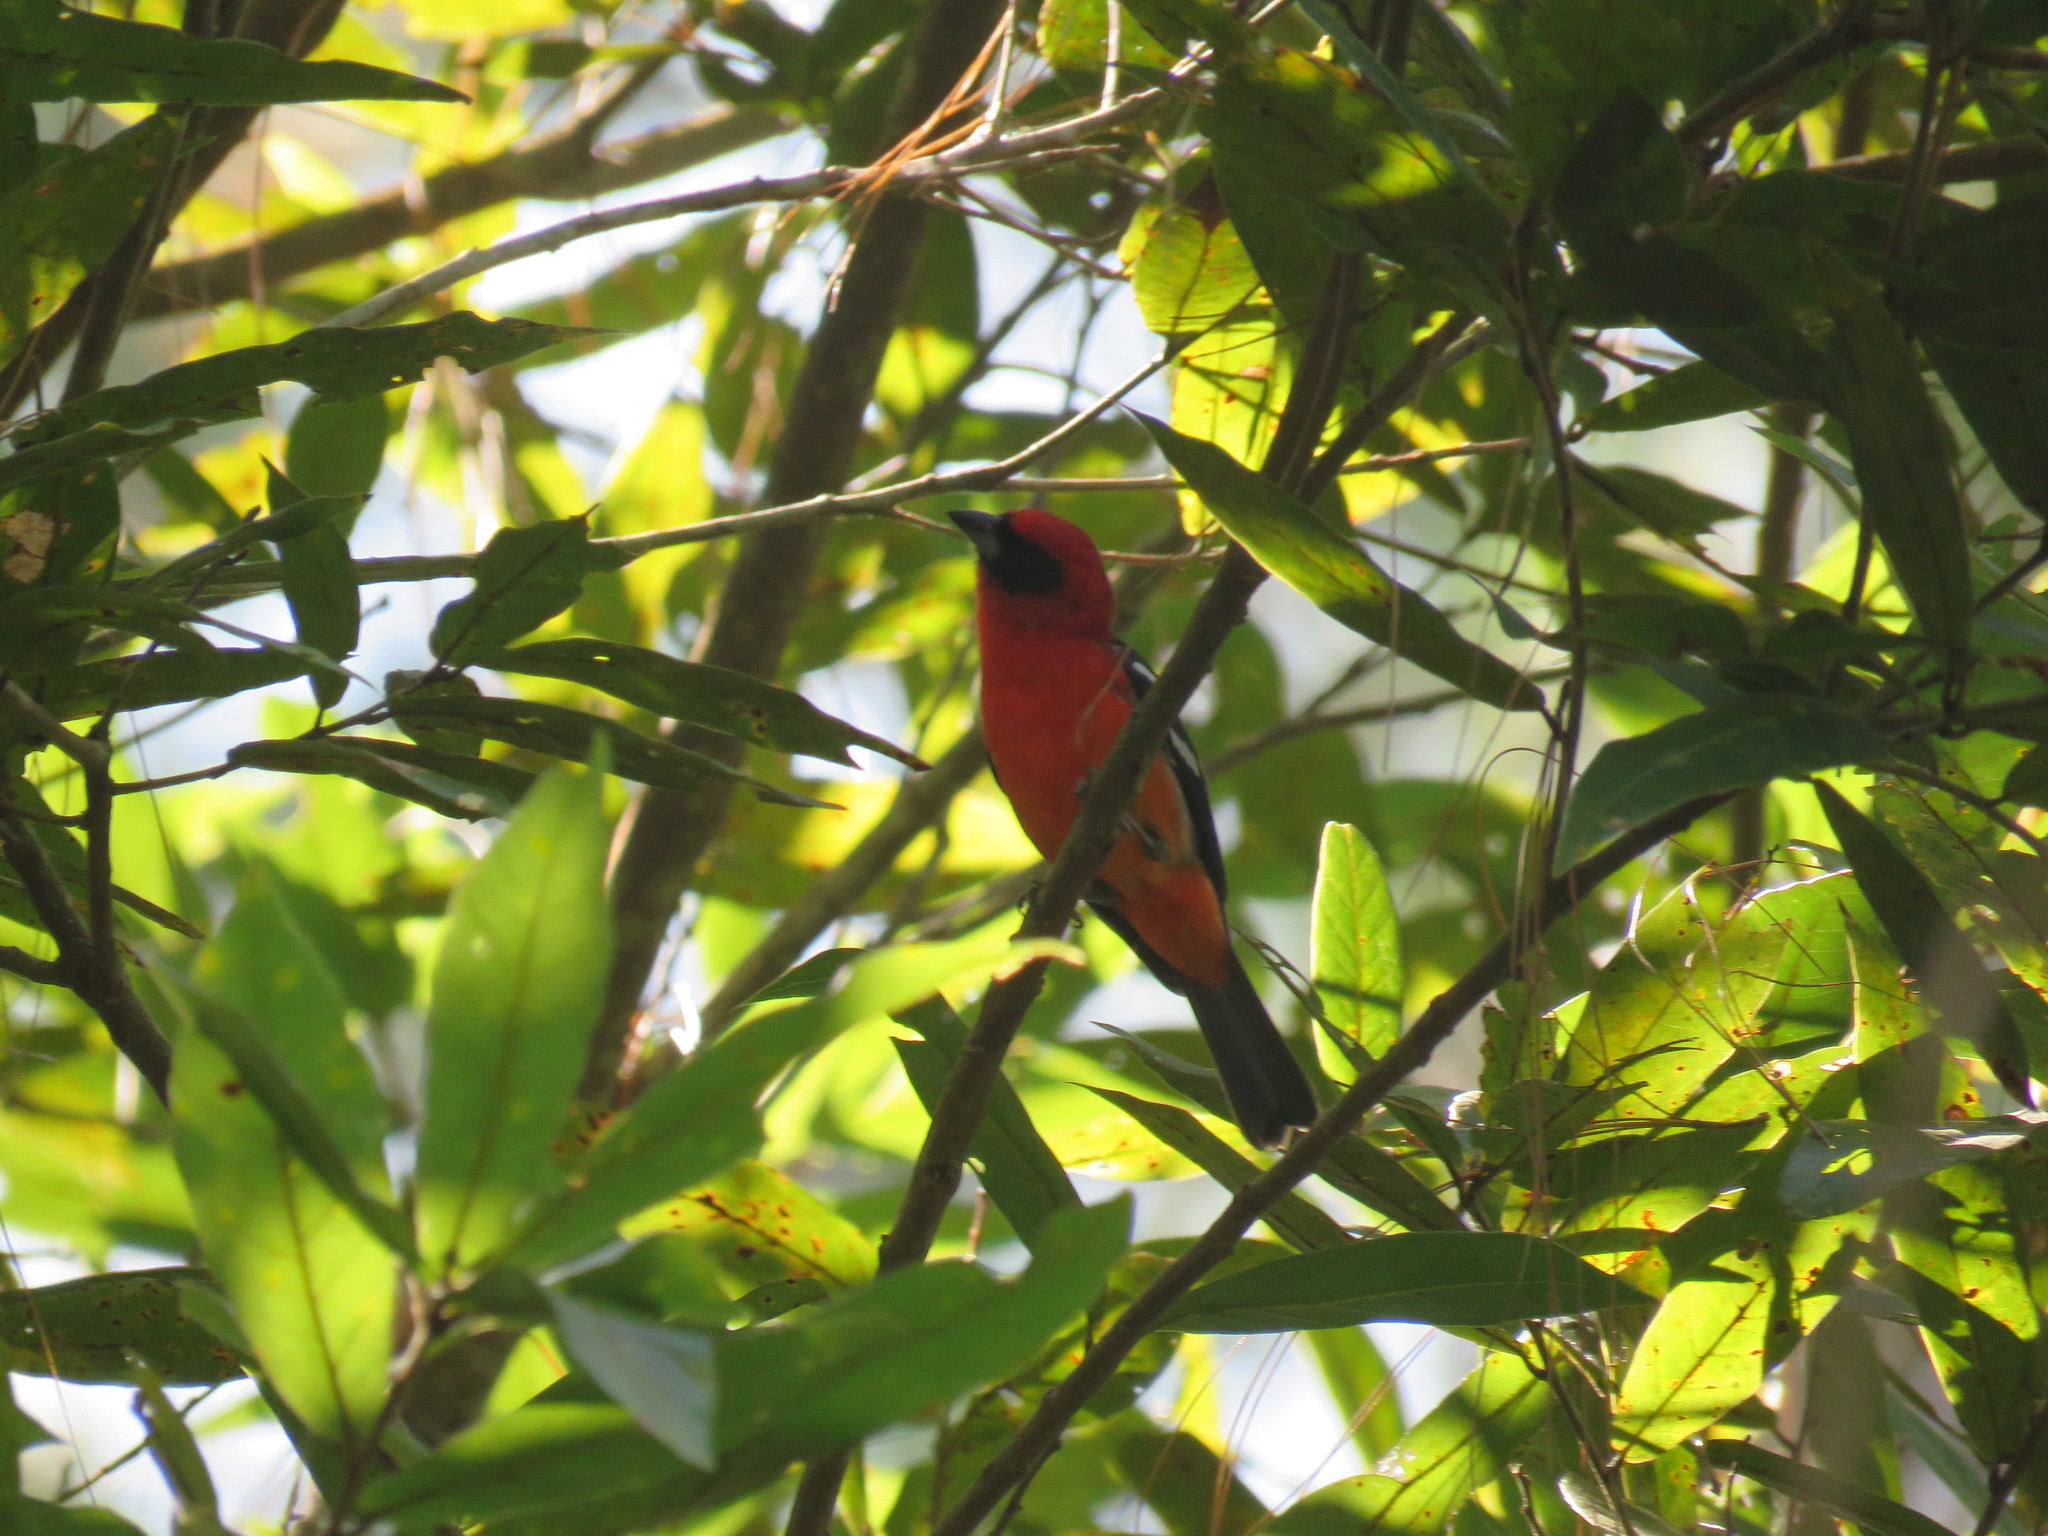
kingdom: Animalia
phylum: Chordata
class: Aves
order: Passeriformes
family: Cardinalidae
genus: Piranga
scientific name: Piranga leucoptera
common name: White-winged tanager
